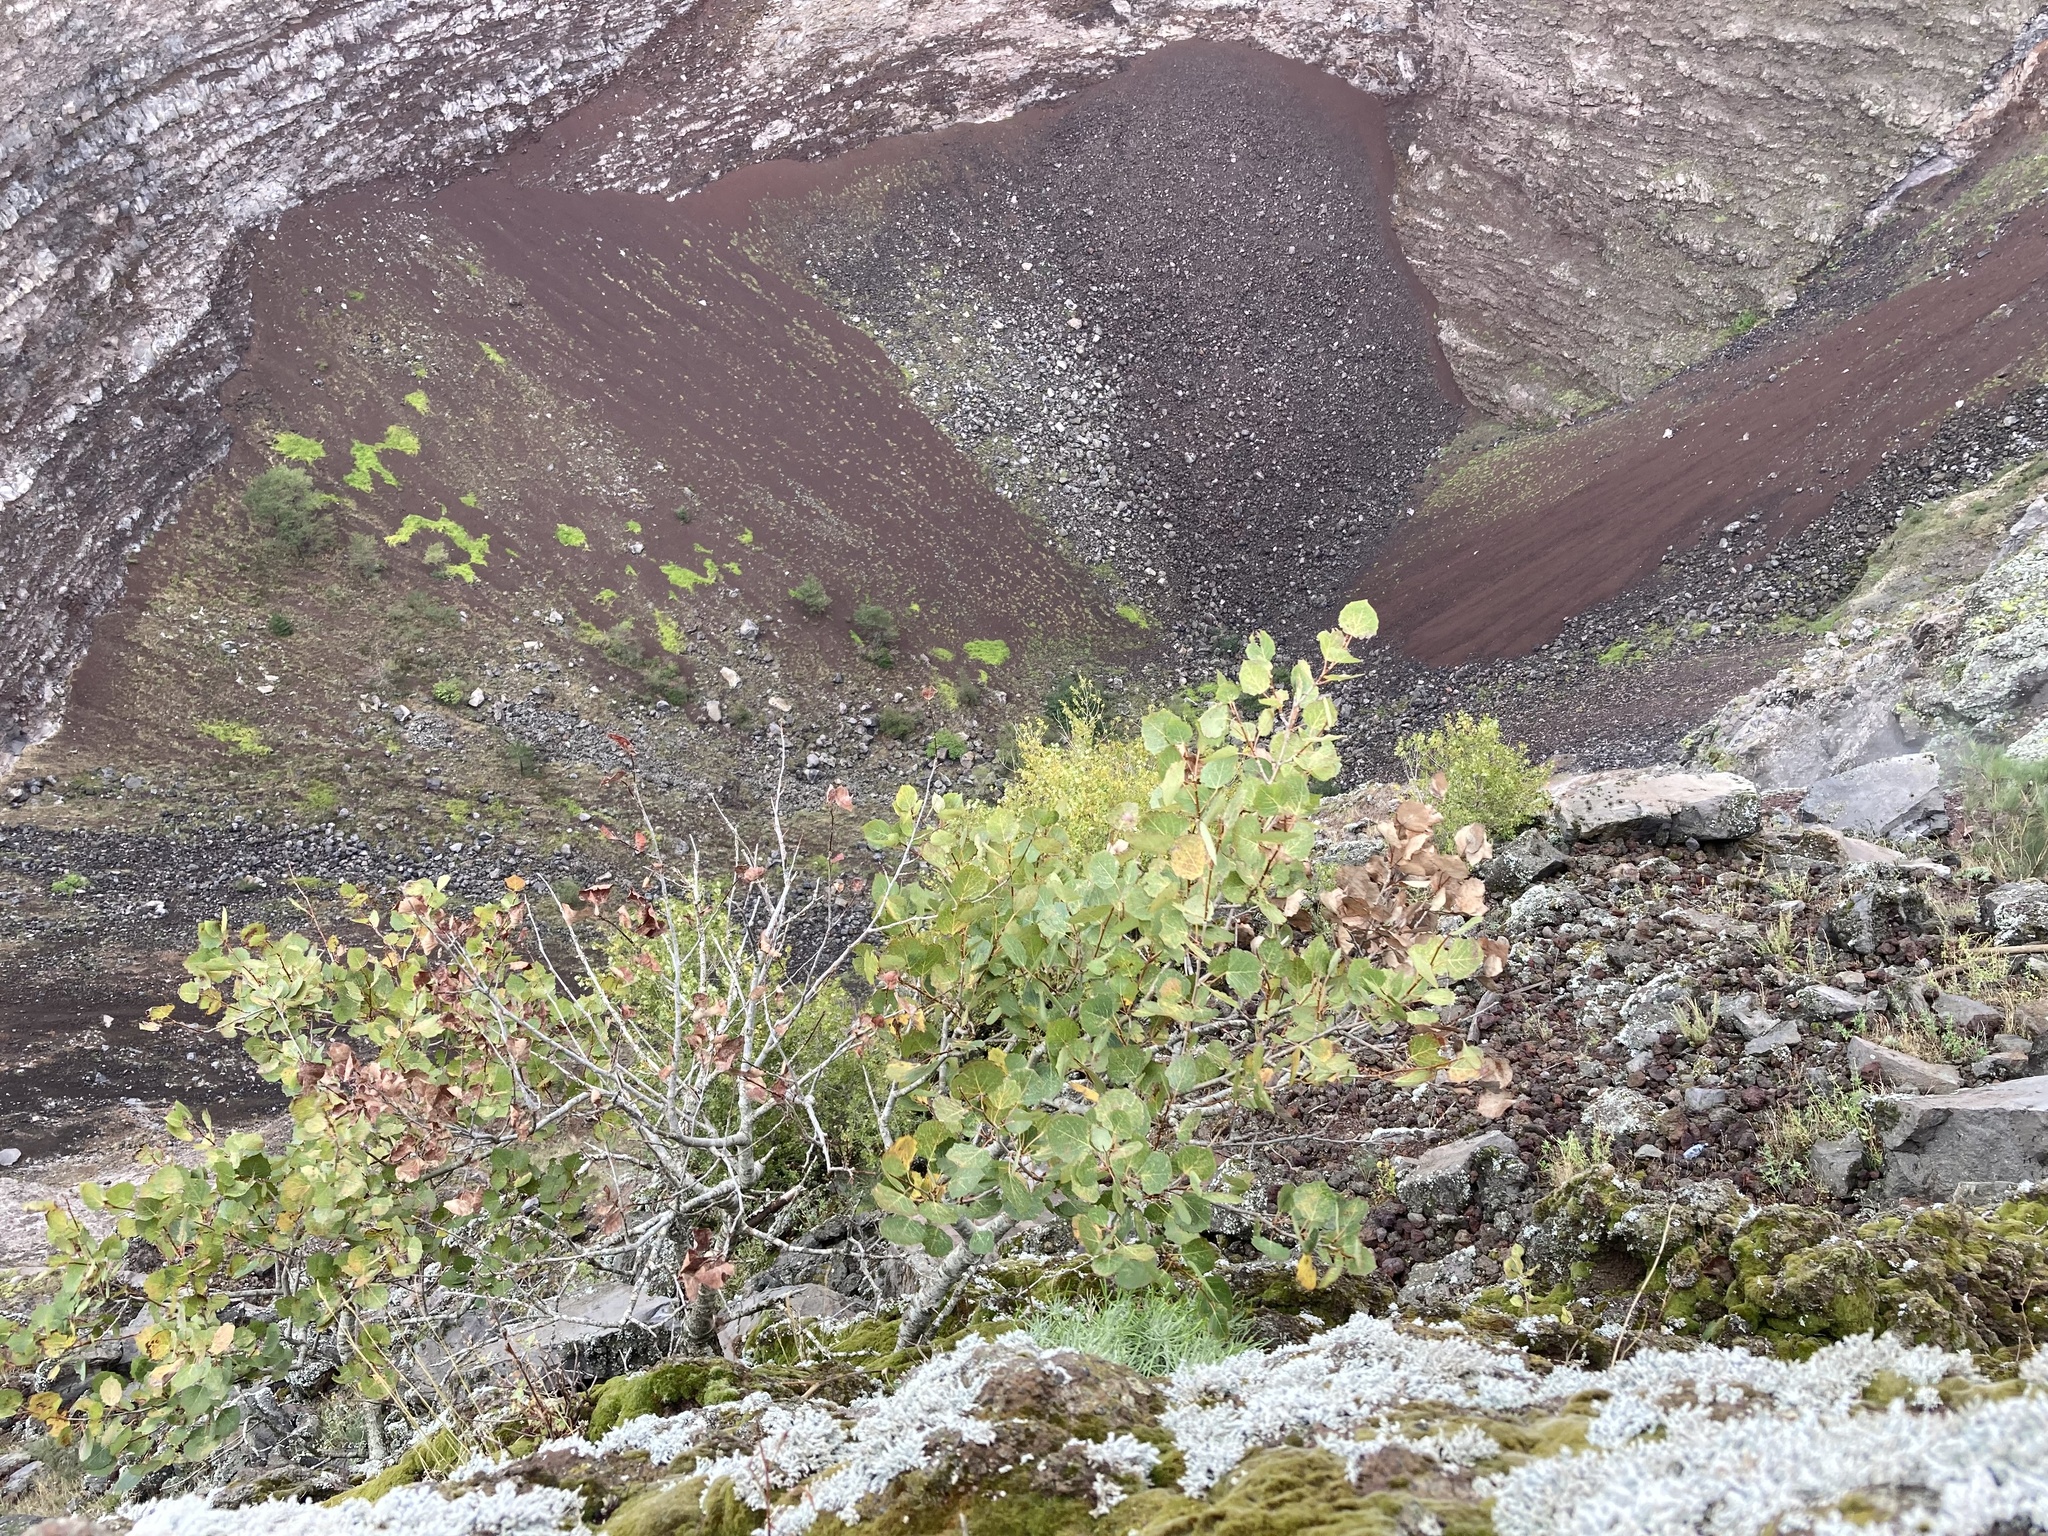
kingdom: Plantae
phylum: Tracheophyta
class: Magnoliopsida
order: Malpighiales
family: Salicaceae
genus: Populus
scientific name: Populus tremula
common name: European aspen
